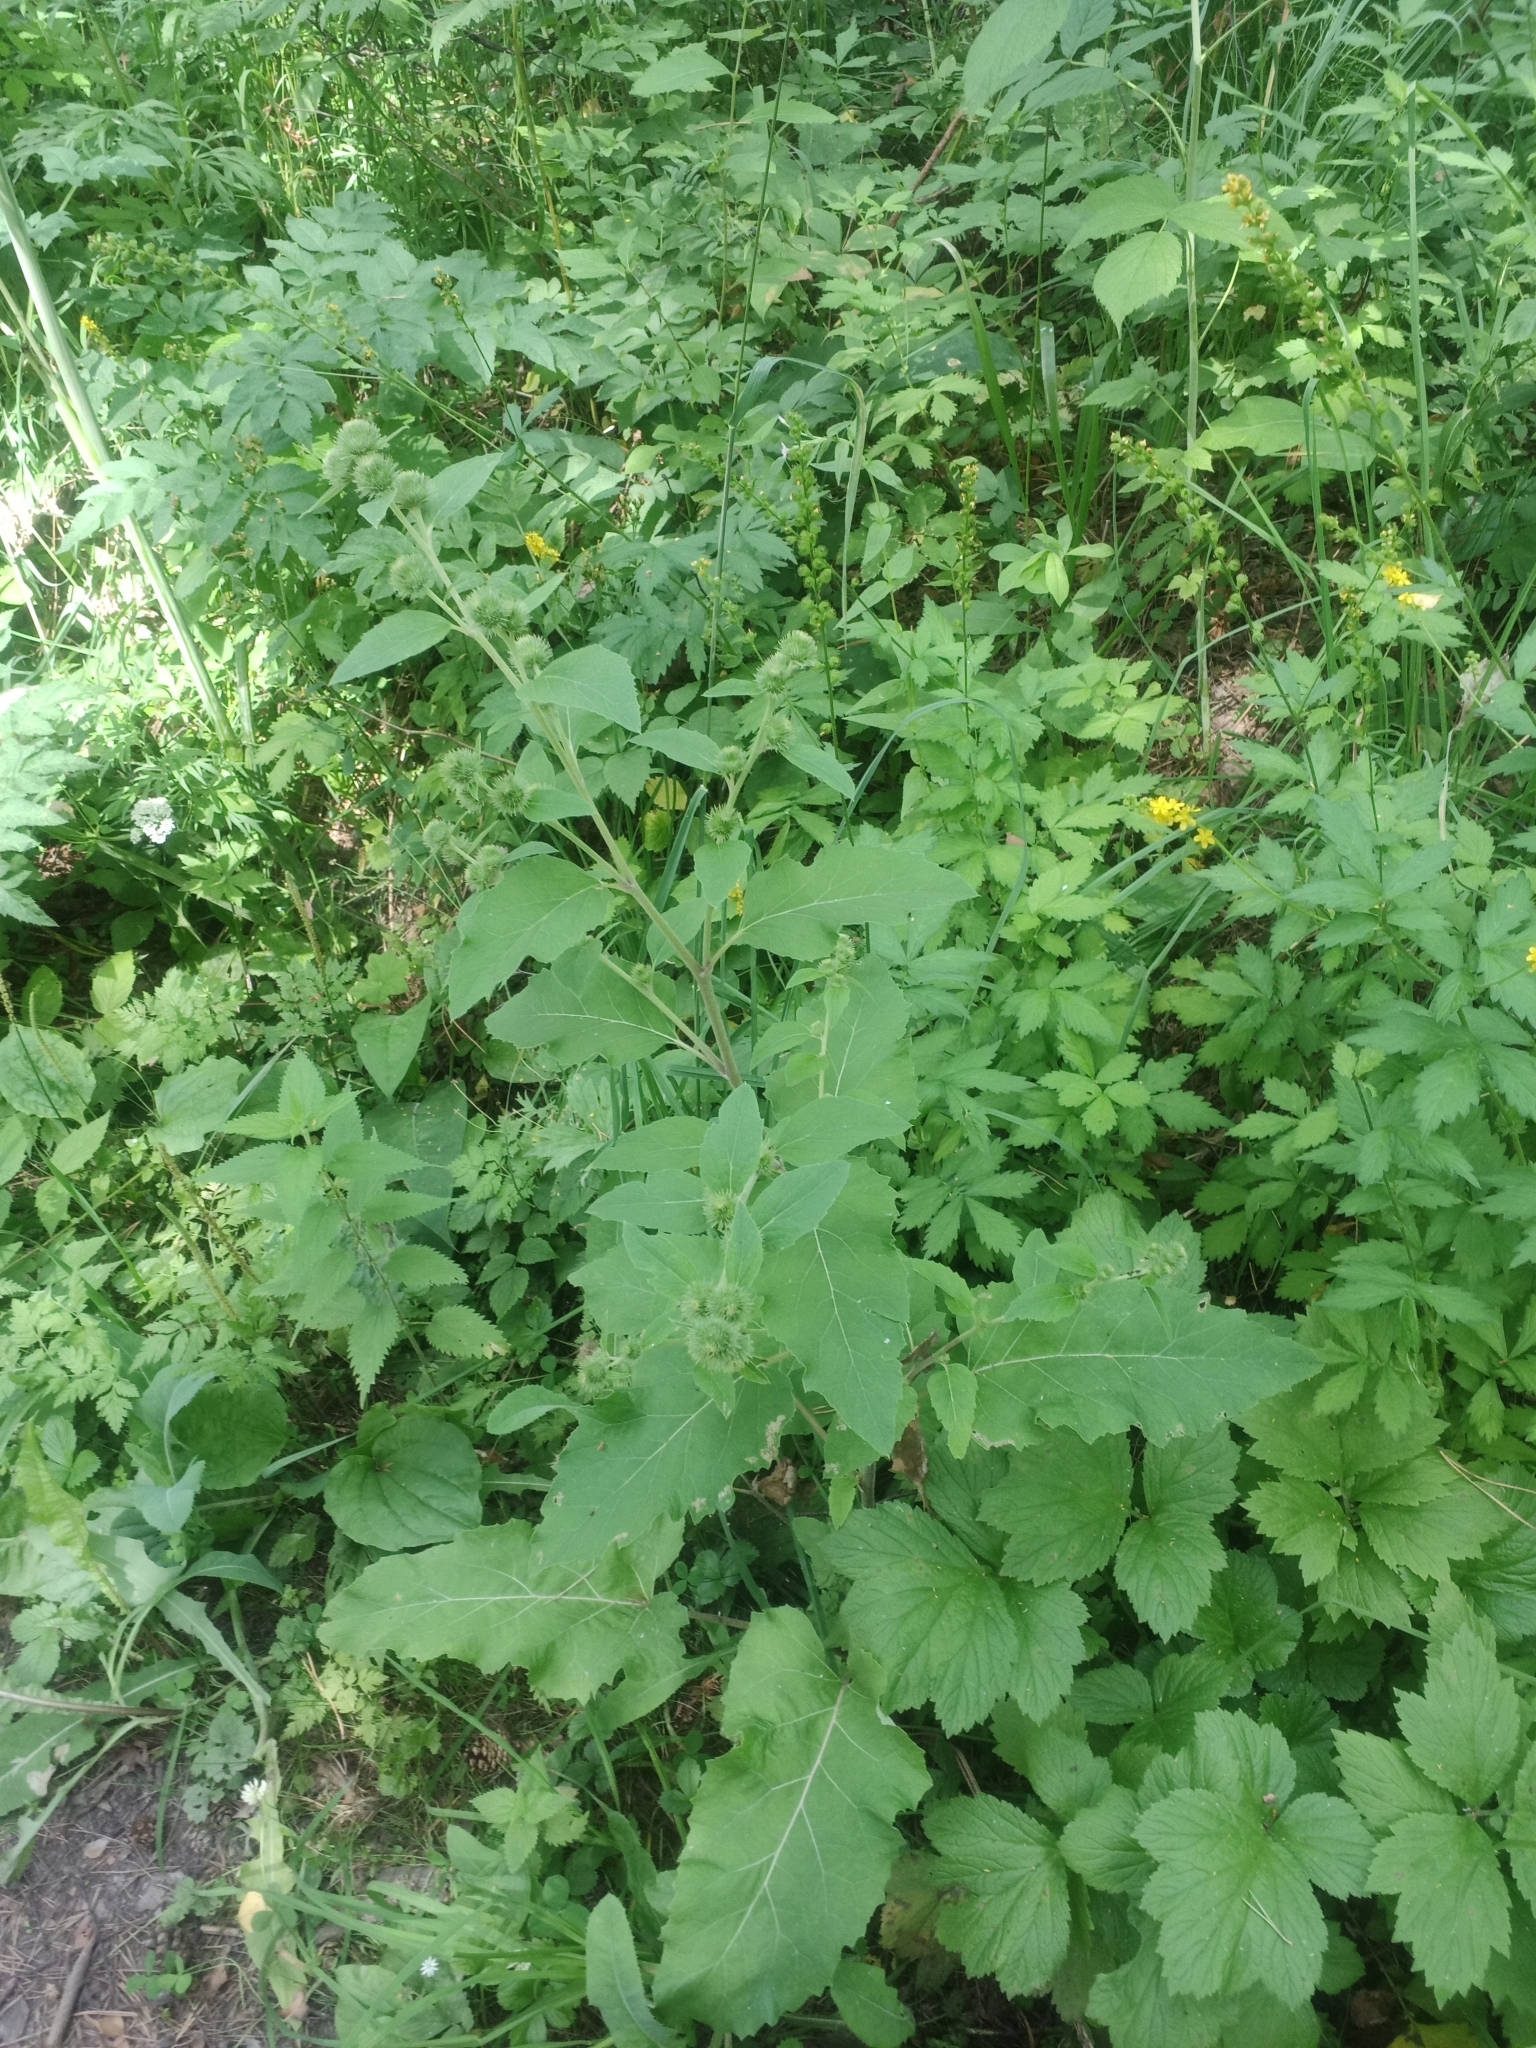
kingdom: Plantae
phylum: Tracheophyta
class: Magnoliopsida
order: Asterales
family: Asteraceae
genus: Arctium
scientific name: Arctium minus
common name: Lesser burdock
